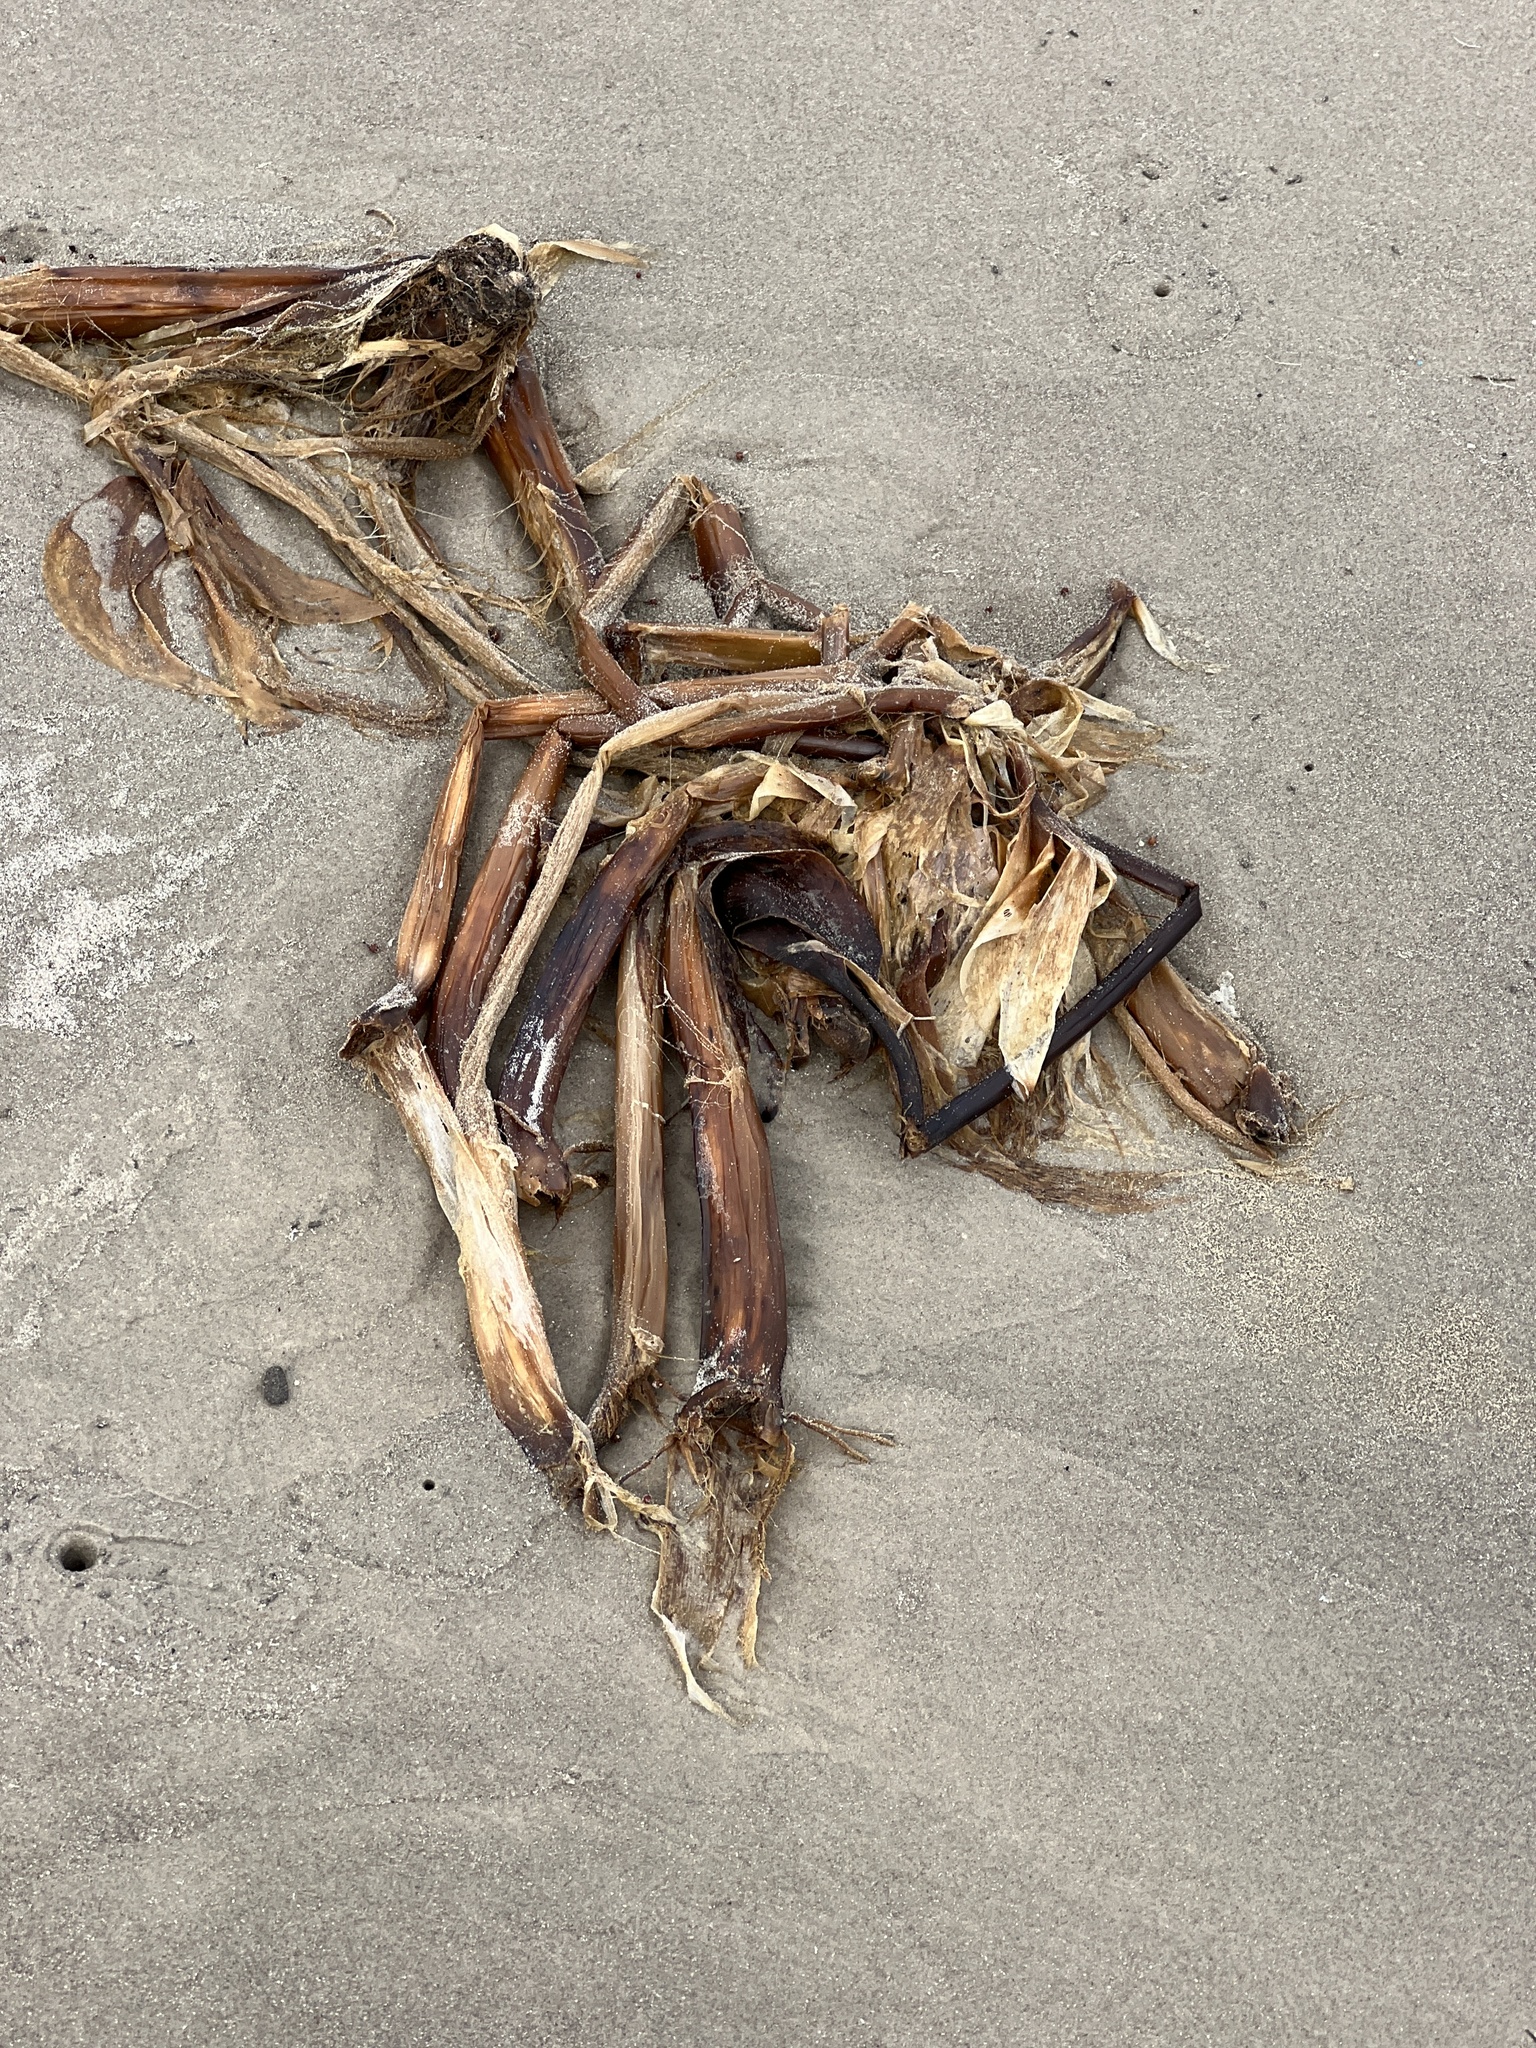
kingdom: Plantae
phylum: Tracheophyta
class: Liliopsida
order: Commelinales
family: Pontederiaceae
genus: Pontederia
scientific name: Pontederia crassipes
